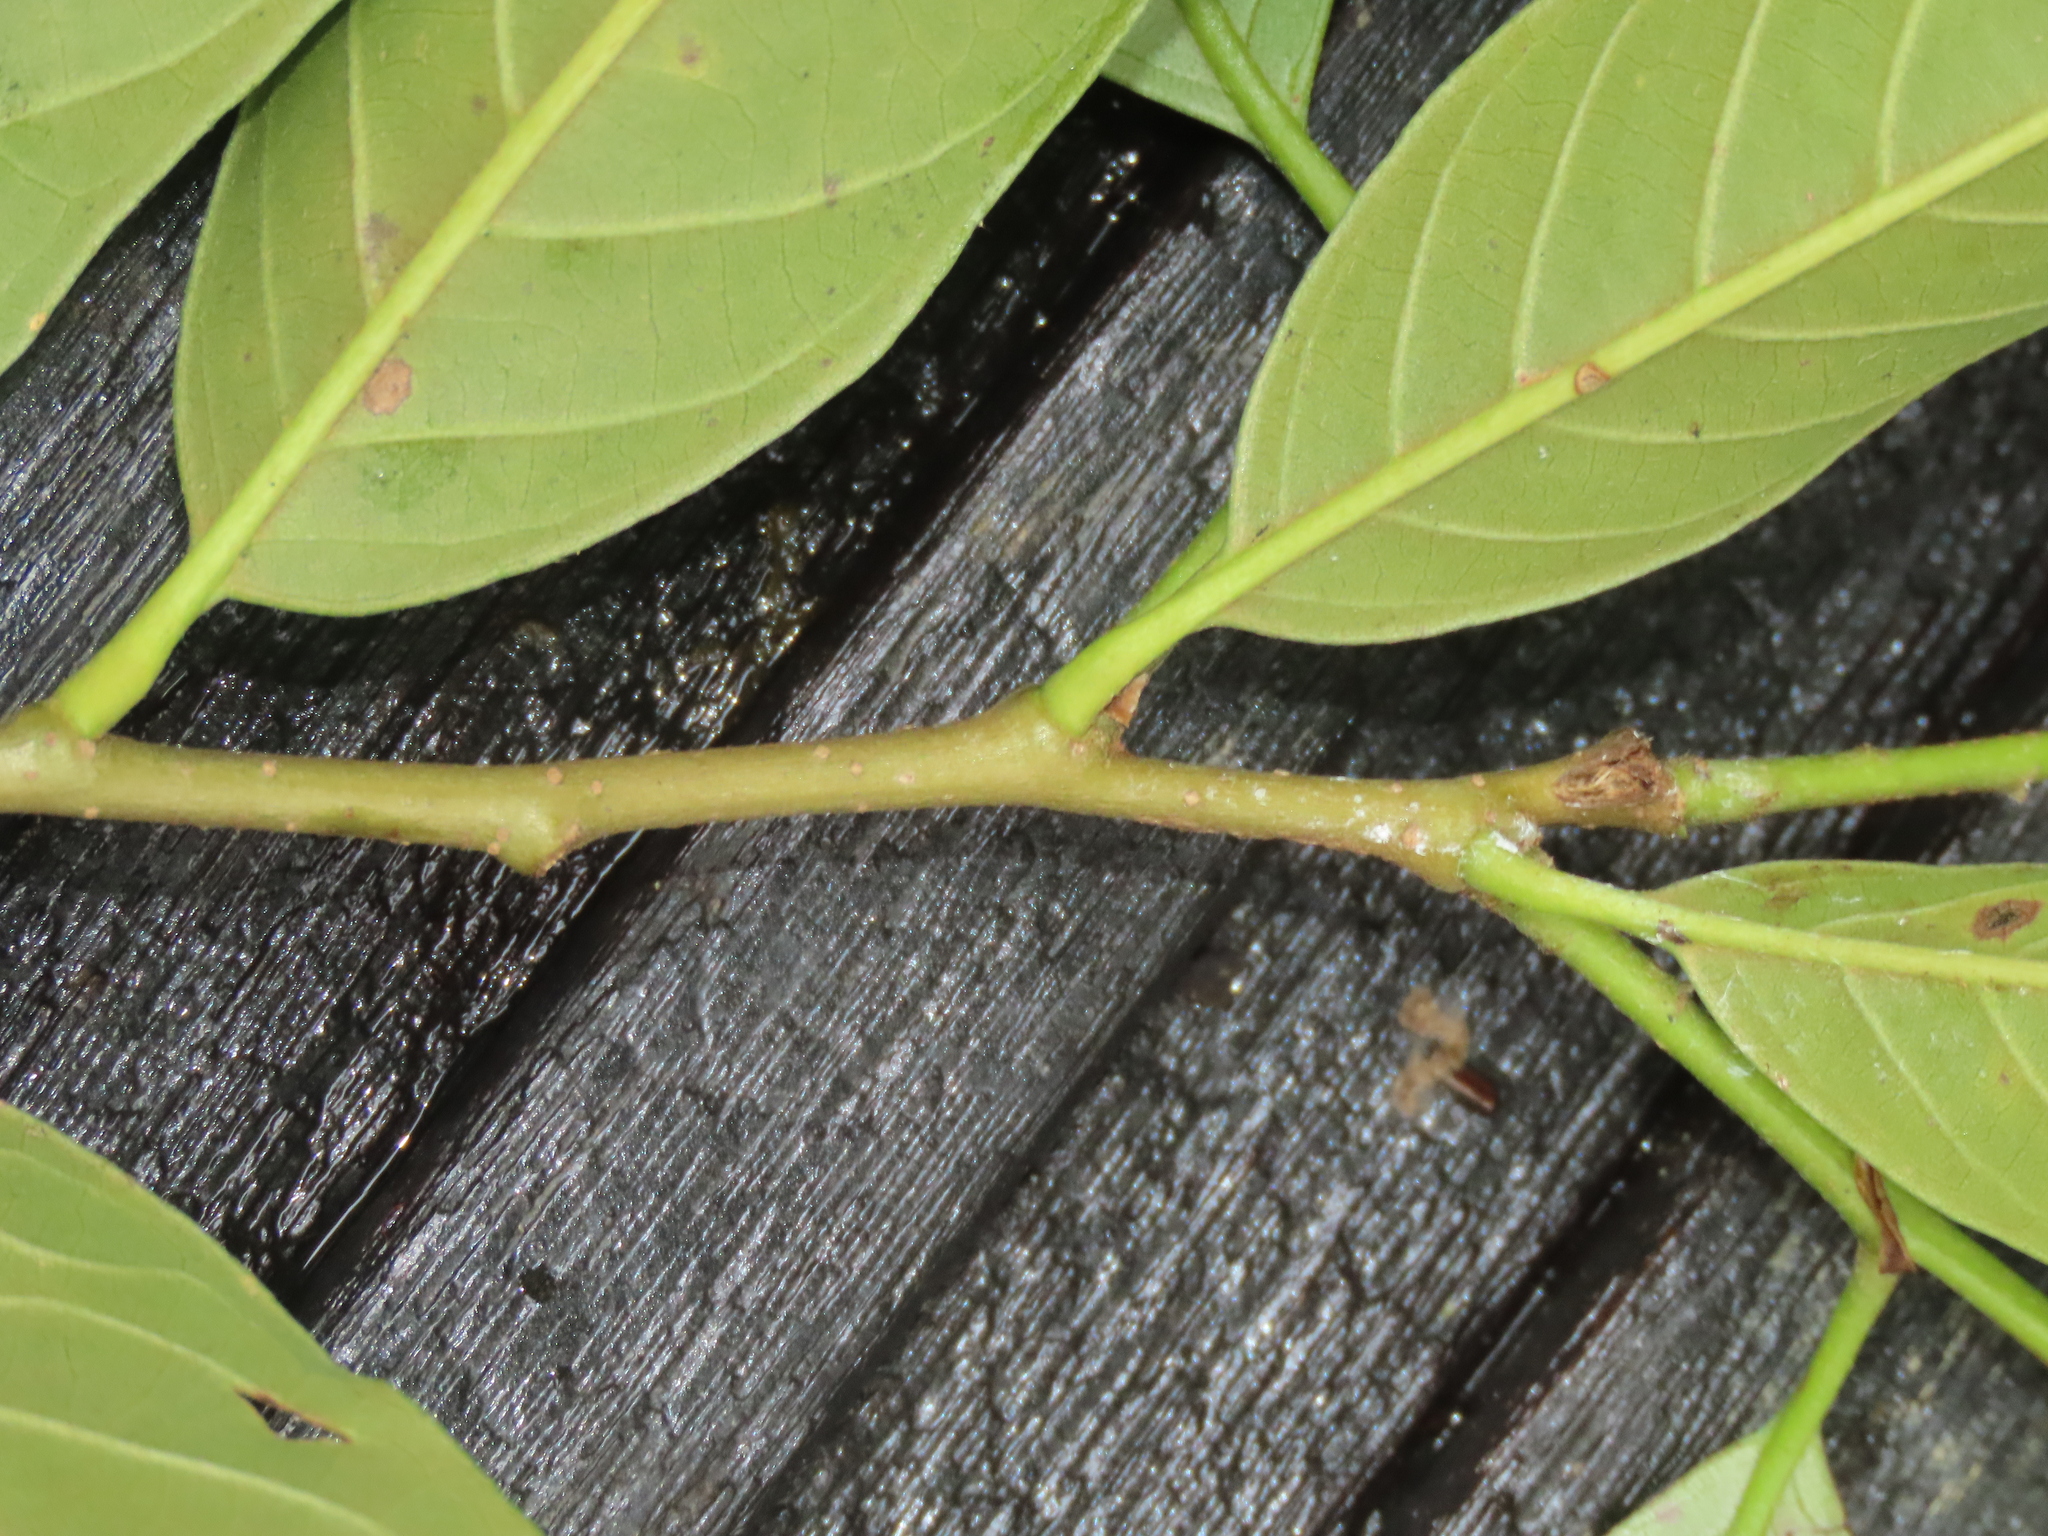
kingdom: Plantae
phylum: Tracheophyta
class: Magnoliopsida
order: Fagales
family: Fagaceae
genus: Castanopsis
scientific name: Castanopsis faberi
